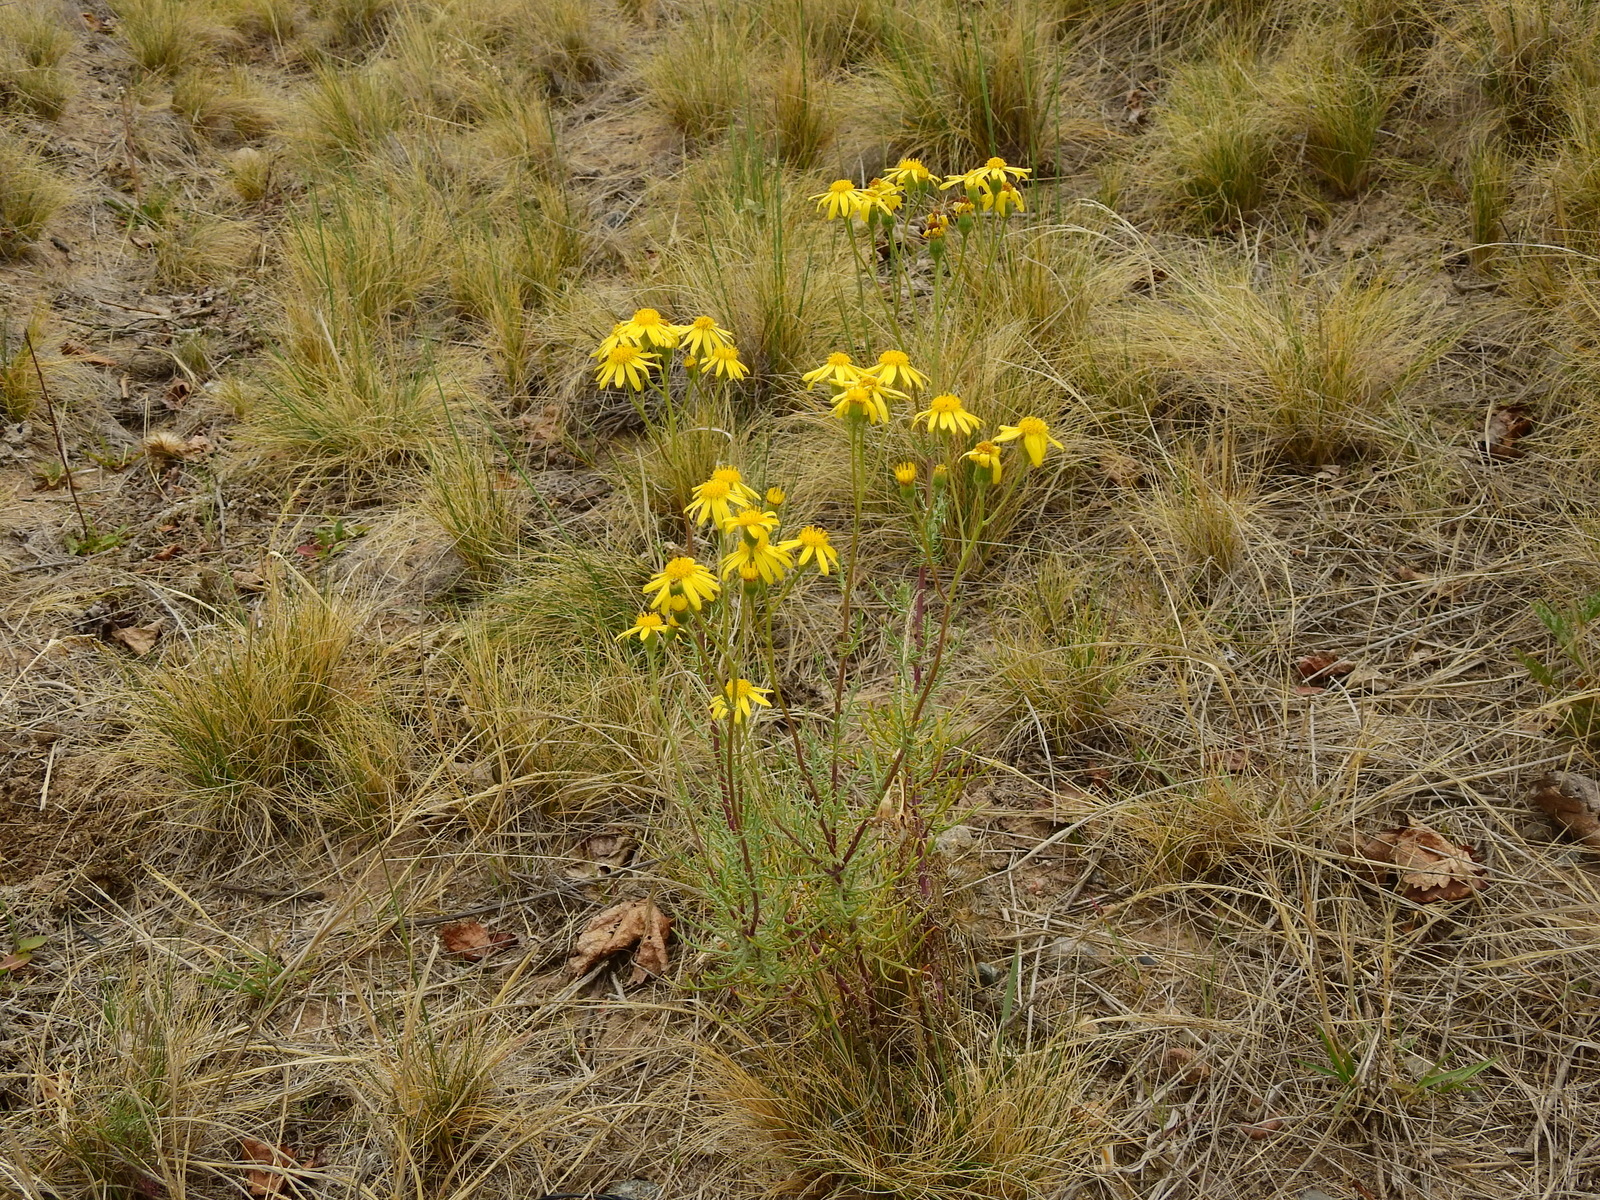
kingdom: Plantae
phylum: Tracheophyta
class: Magnoliopsida
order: Asterales
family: Asteraceae
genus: Senecio
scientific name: Senecio goldsackii
